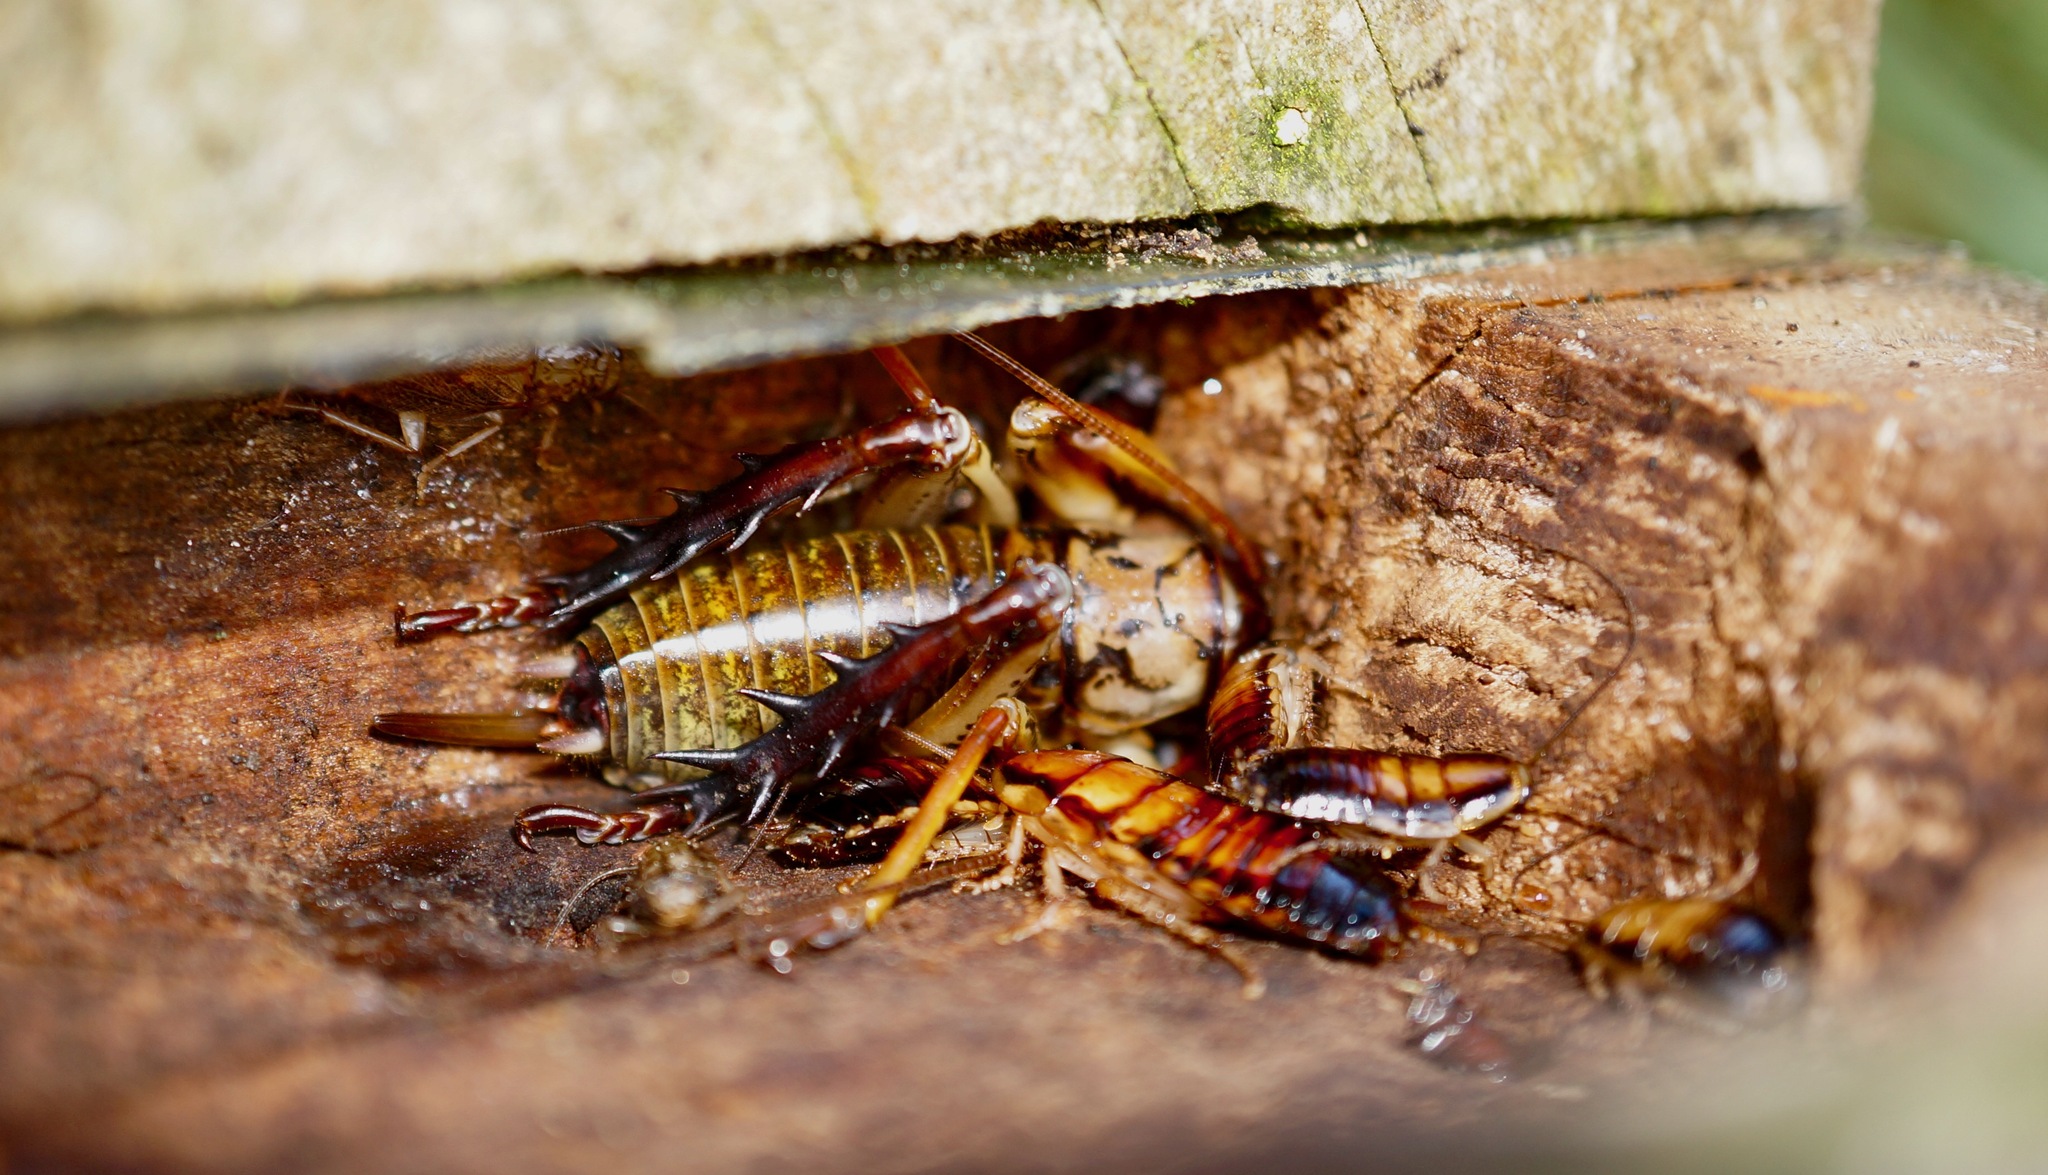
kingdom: Animalia
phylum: Arthropoda
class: Insecta
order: Orthoptera
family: Anostostomatidae
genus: Hemideina
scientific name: Hemideina thoracica
